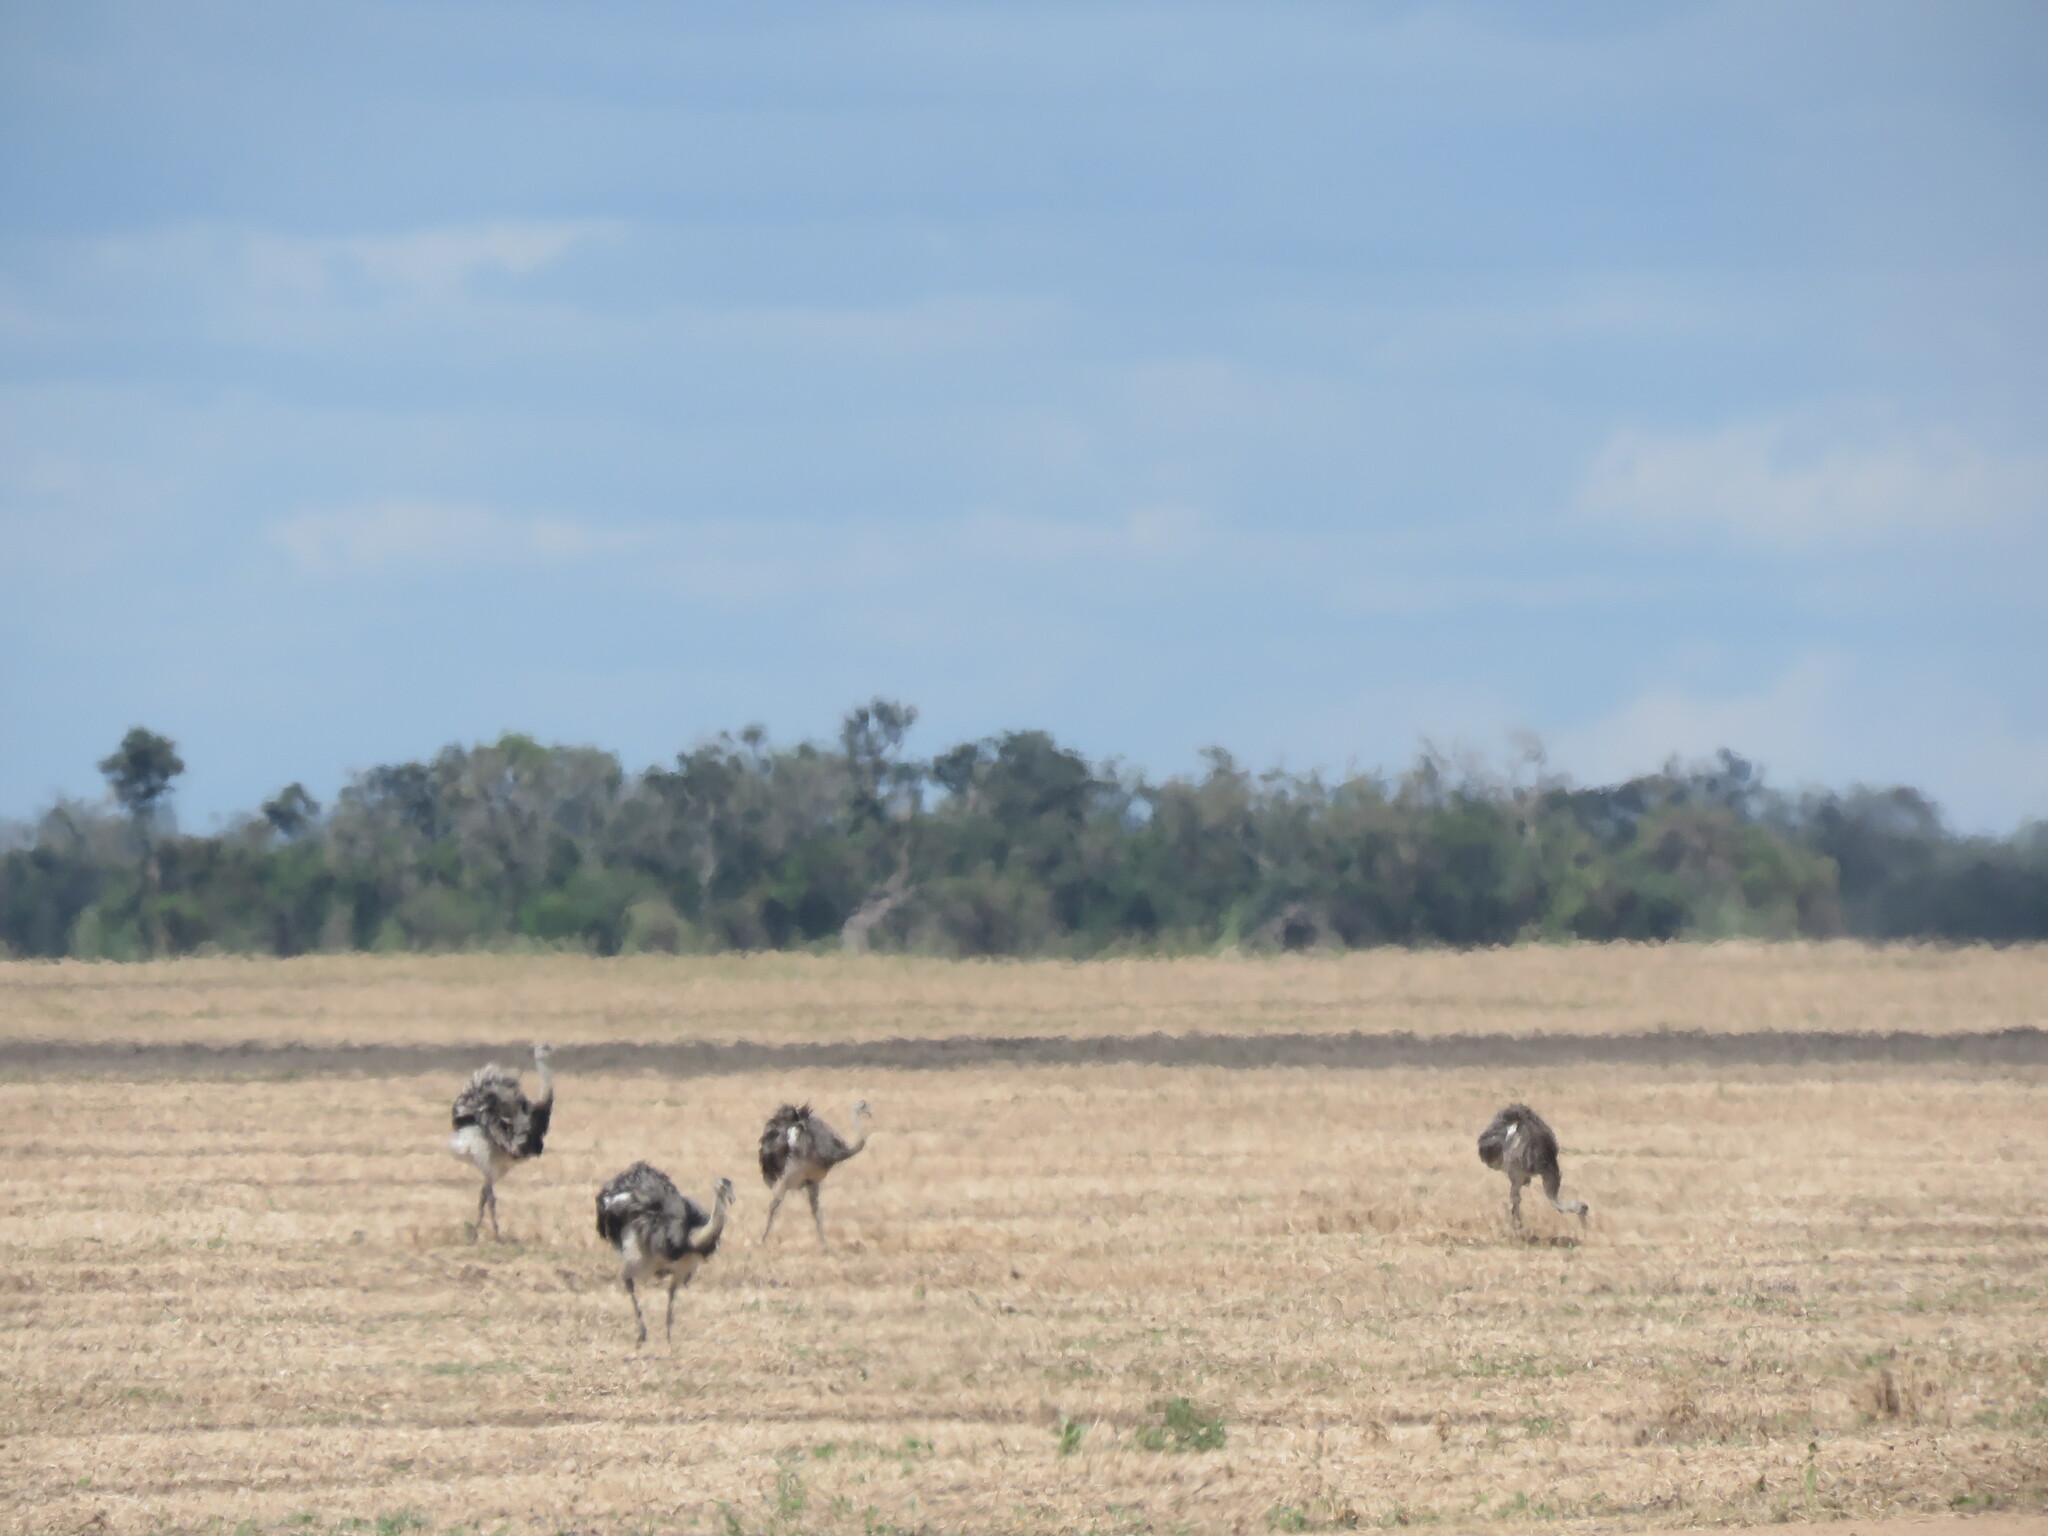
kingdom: Animalia
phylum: Chordata
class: Aves
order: Rheiformes
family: Rheidae
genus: Rhea
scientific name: Rhea americana
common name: Greater rhea
